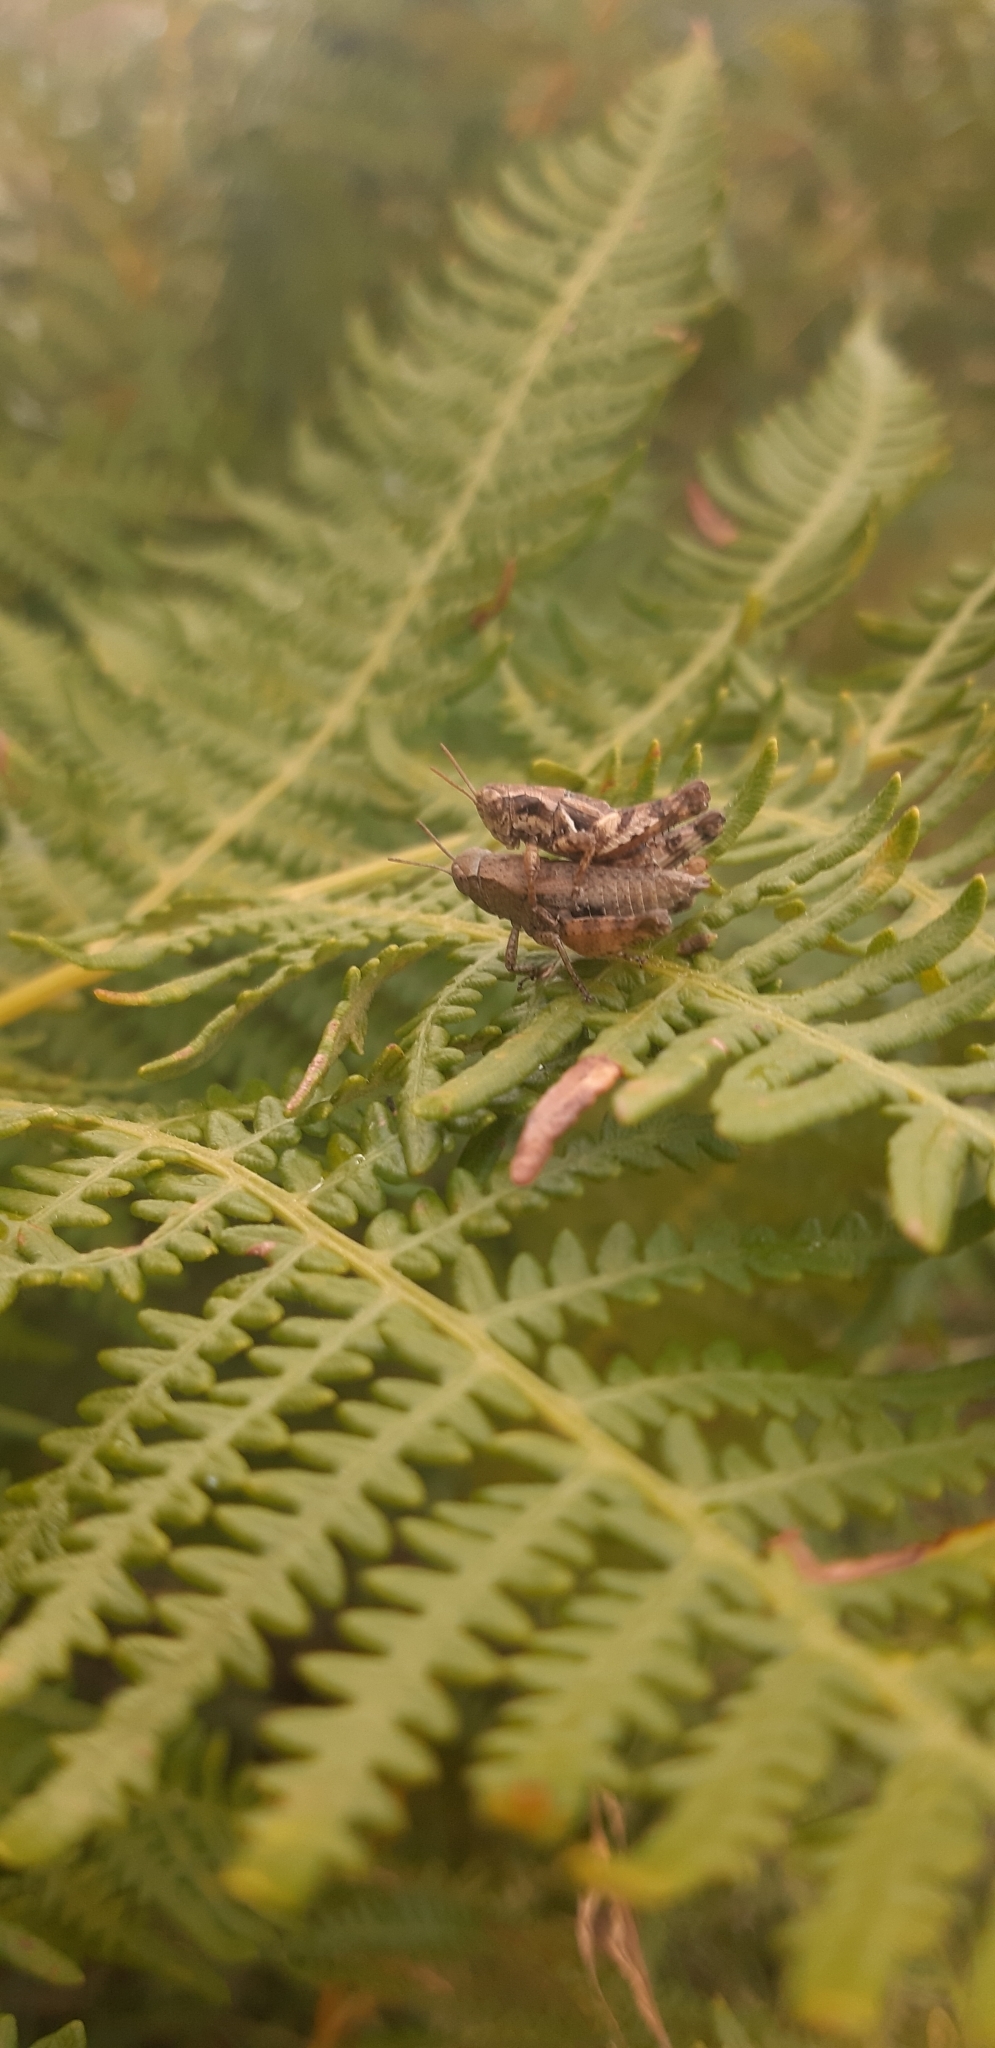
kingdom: Animalia
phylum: Arthropoda
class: Insecta
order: Orthoptera
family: Acrididae
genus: Pezotettix
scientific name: Pezotettix giornae
